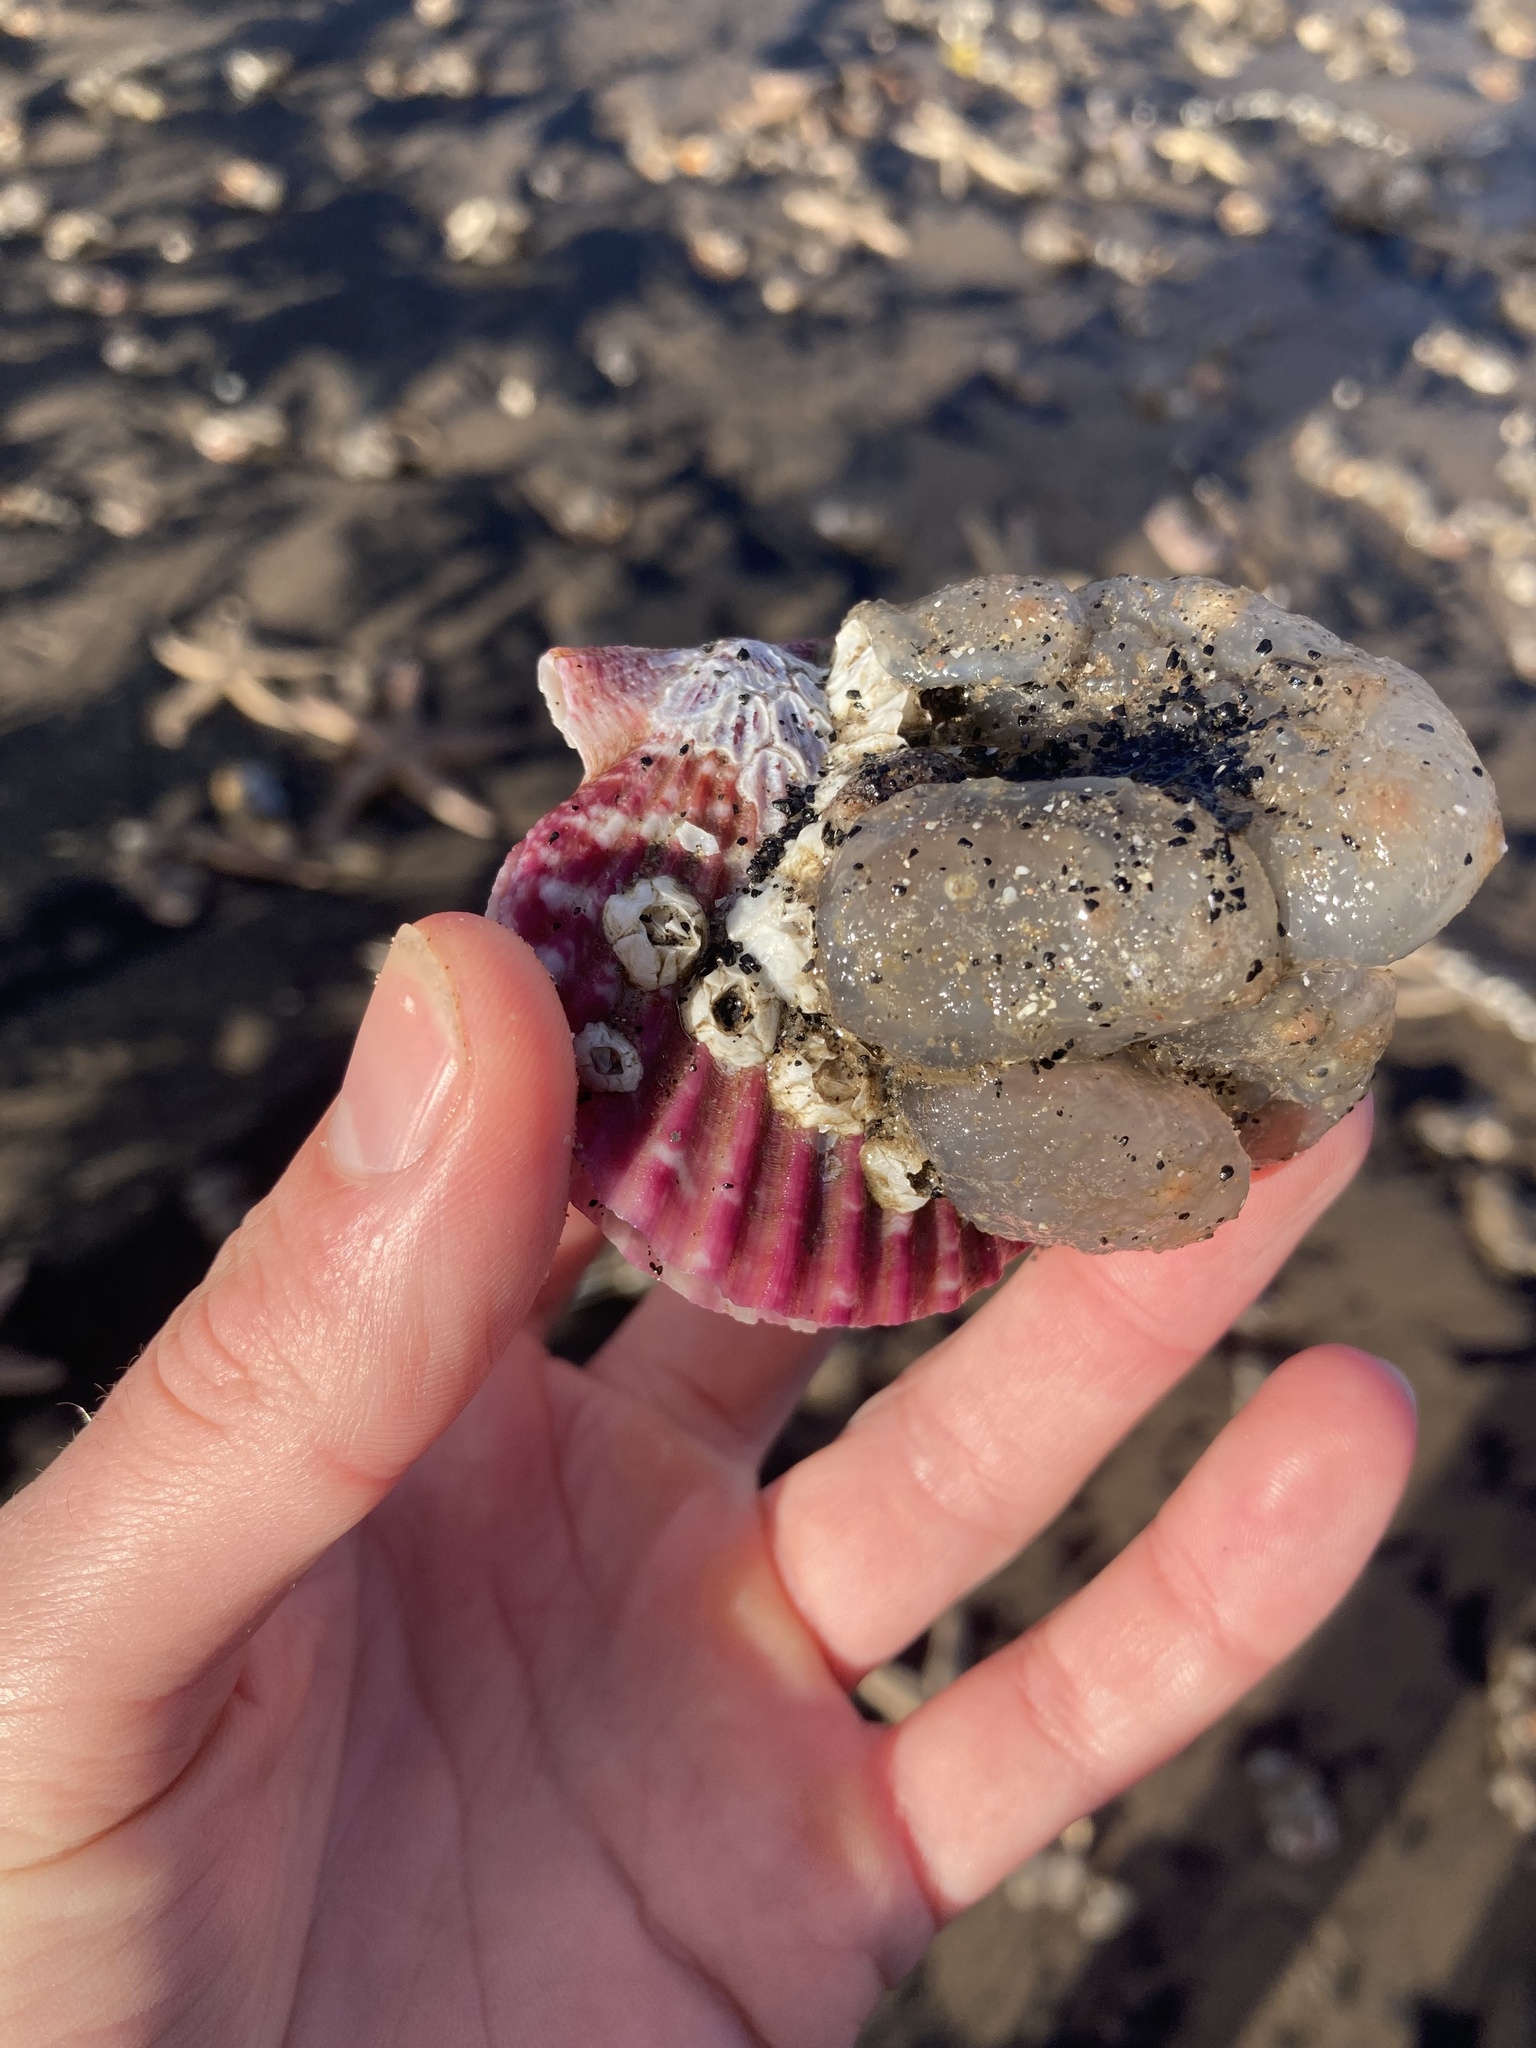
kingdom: Animalia
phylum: Mollusca
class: Bivalvia
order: Pectinida
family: Pectinidae
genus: Aequipecten
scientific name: Aequipecten opercularis
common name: Queen scallop
